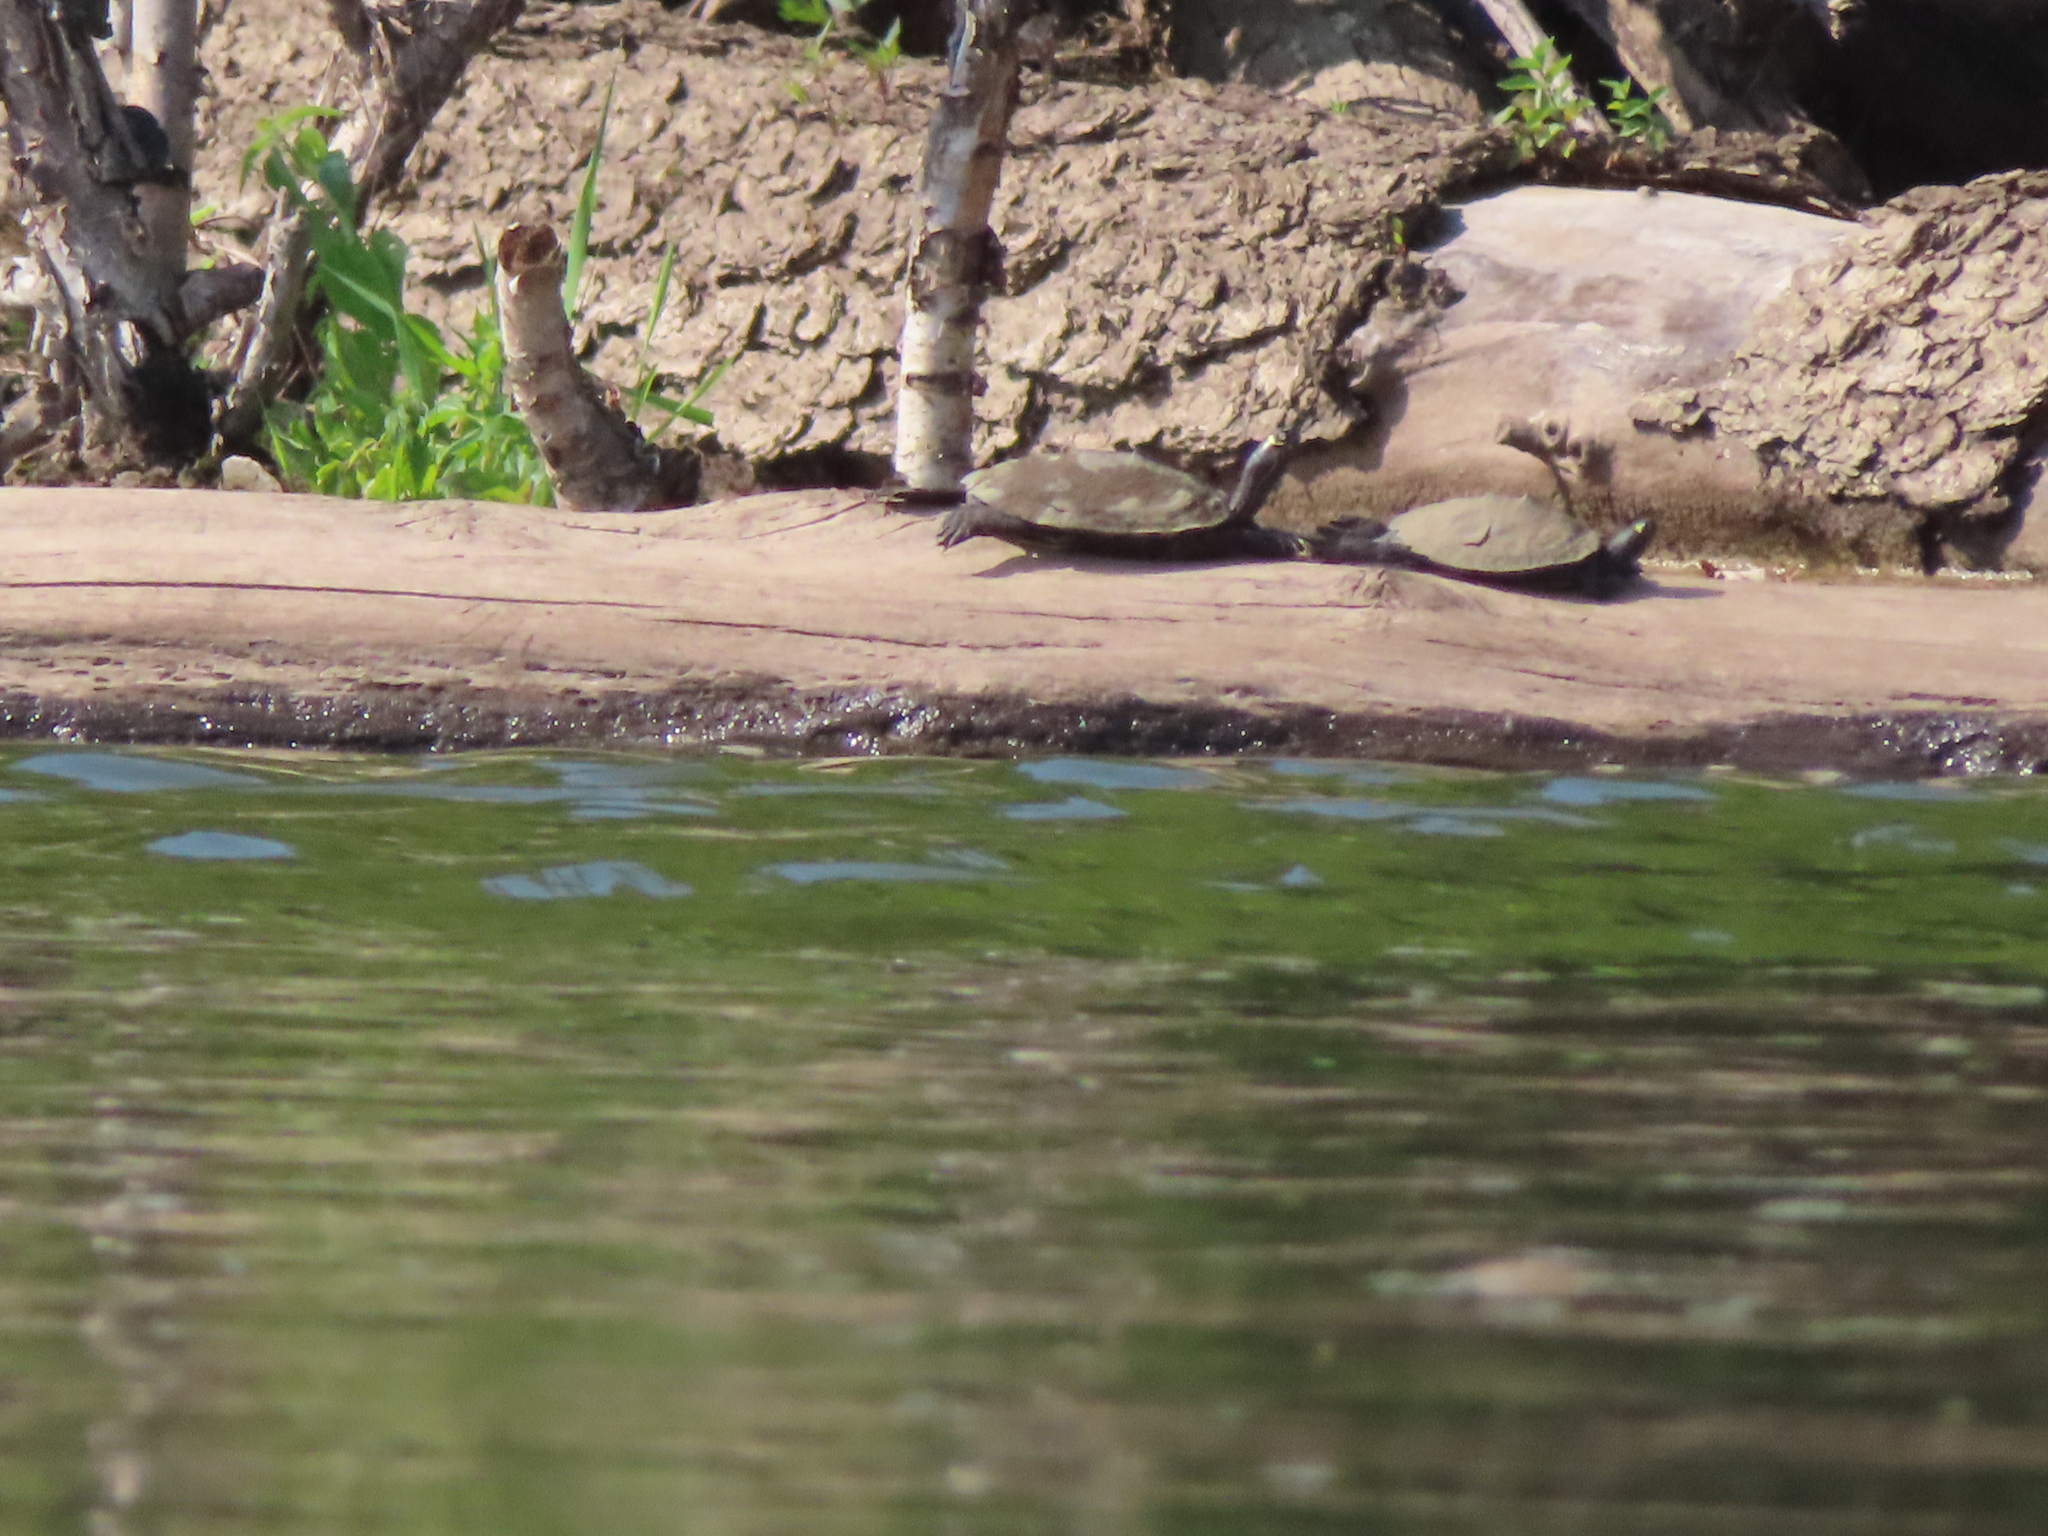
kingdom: Animalia
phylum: Chordata
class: Testudines
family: Emydidae
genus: Graptemys
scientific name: Graptemys ouachitensis
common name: Ouachita map turtle
